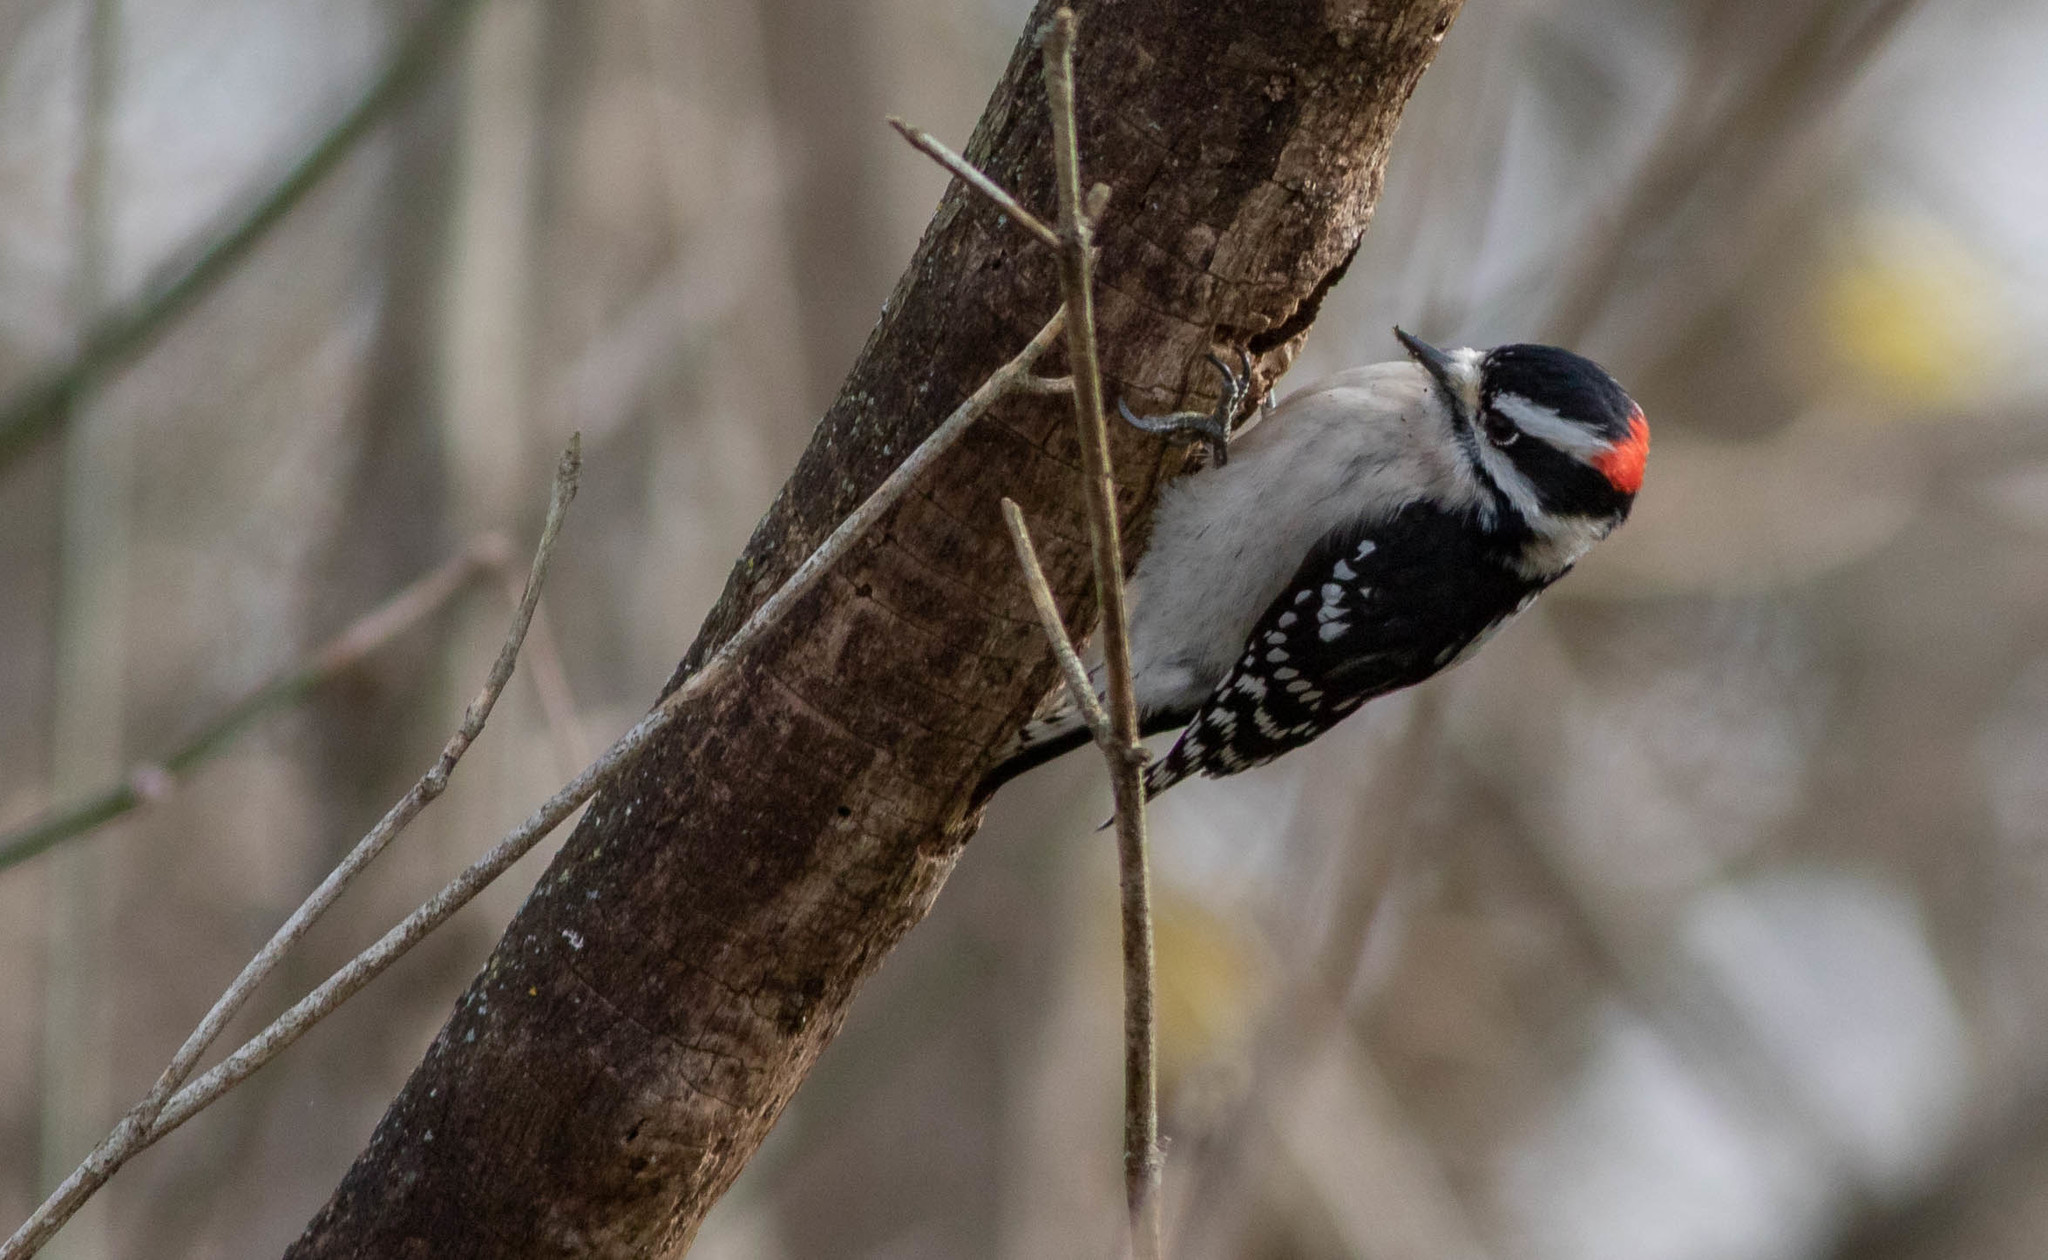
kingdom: Animalia
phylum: Chordata
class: Aves
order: Piciformes
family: Picidae
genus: Dryobates
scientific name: Dryobates pubescens
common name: Downy woodpecker
